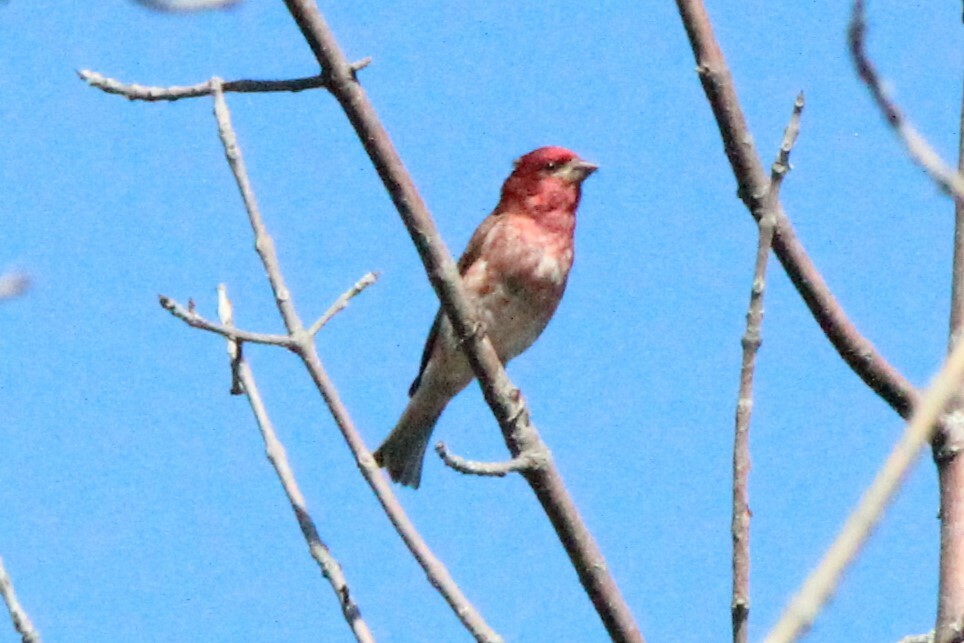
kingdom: Animalia
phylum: Chordata
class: Aves
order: Passeriformes
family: Fringillidae
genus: Haemorhous
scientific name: Haemorhous purpureus
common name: Purple finch
